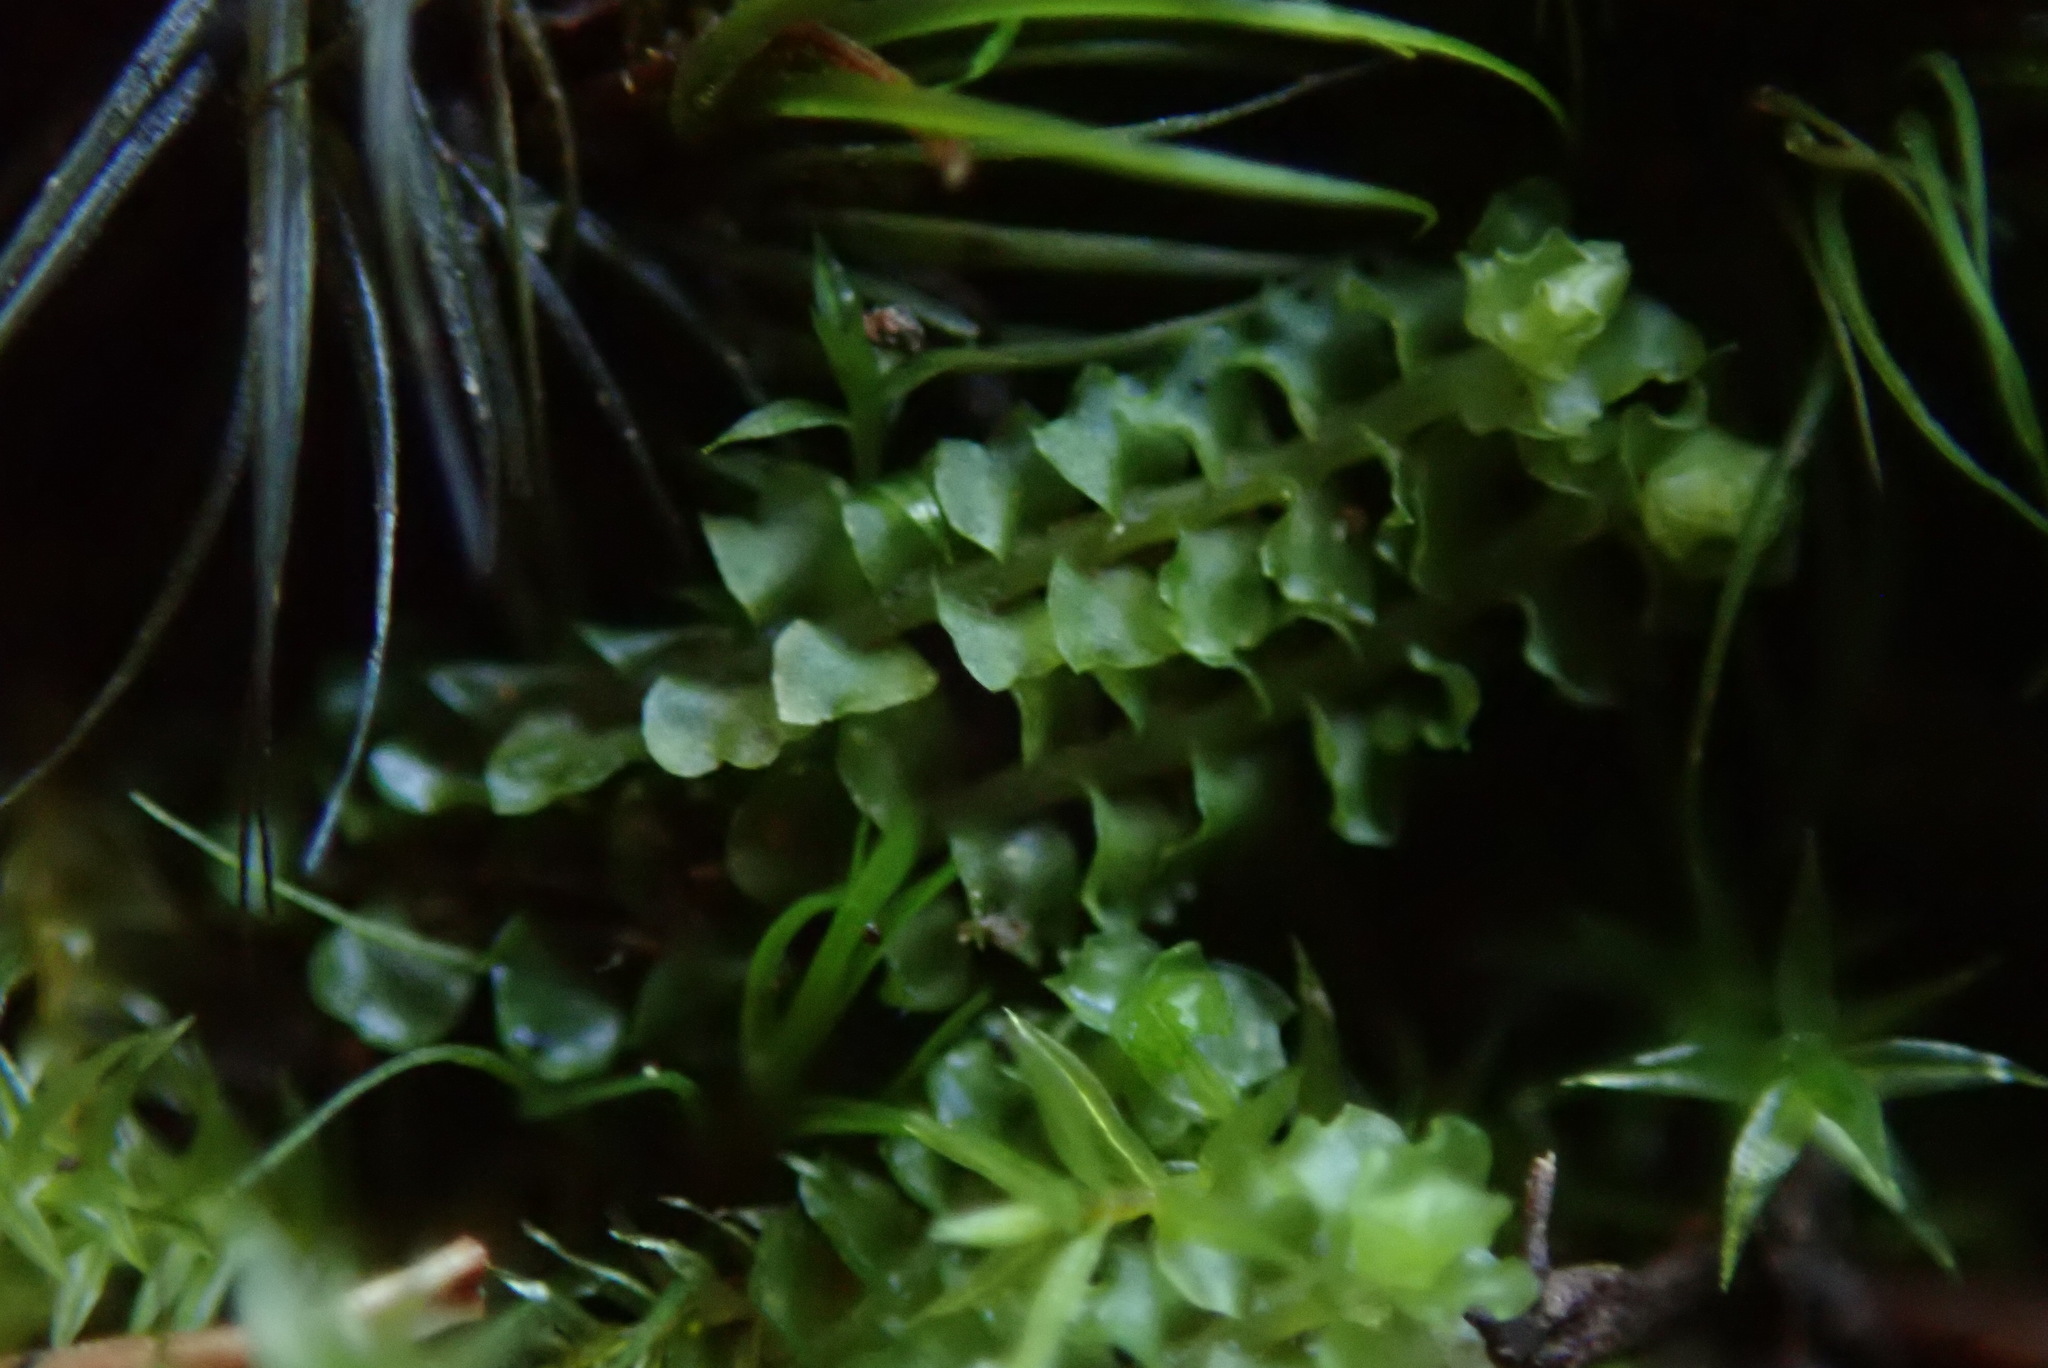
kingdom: Plantae
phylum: Marchantiophyta
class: Jungermanniopsida
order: Jungermanniales
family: Anastrophyllaceae
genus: Neoorthocaulis
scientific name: Neoorthocaulis floerkei
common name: Floerke's barbilophozia
